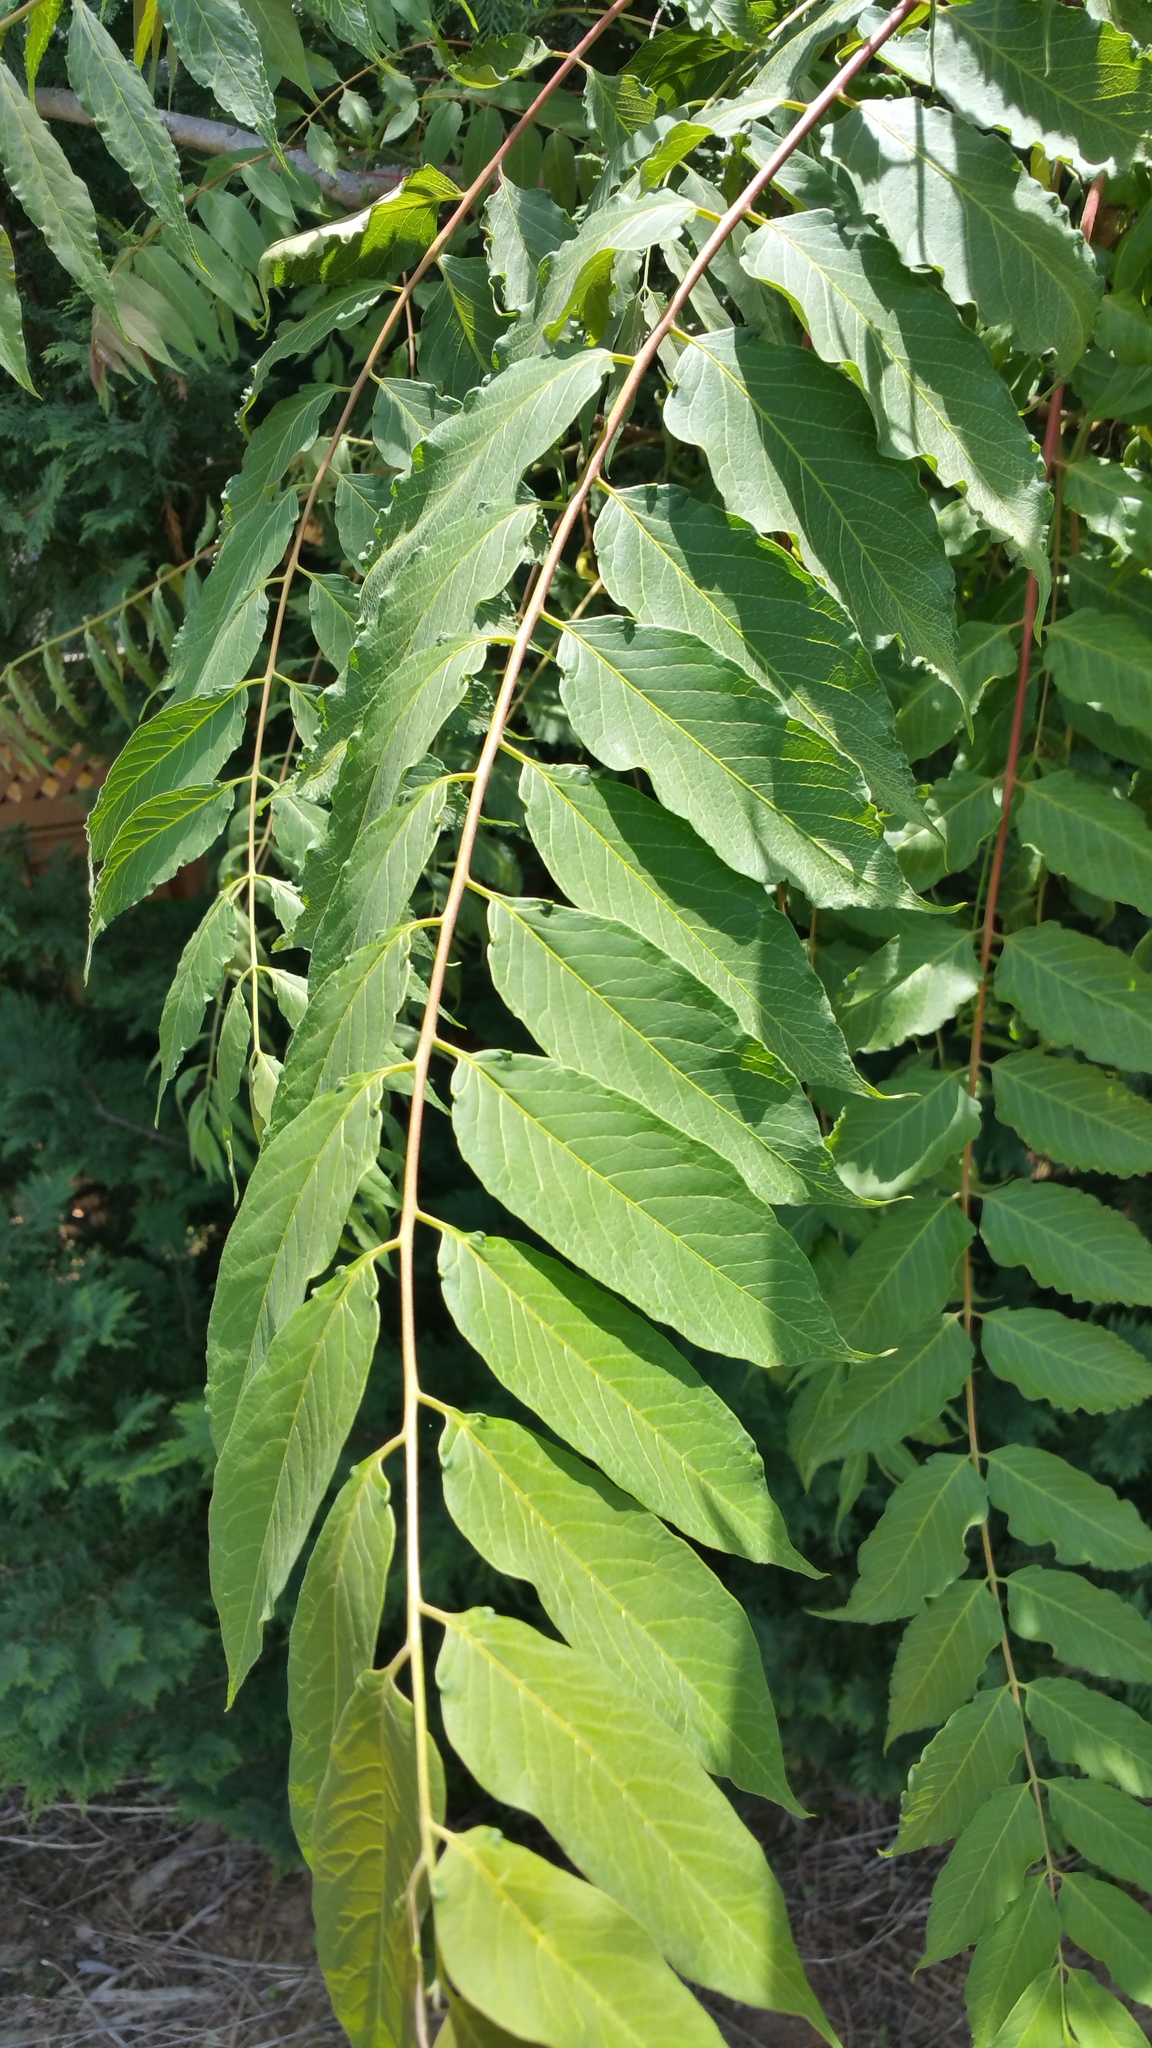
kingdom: Plantae
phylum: Tracheophyta
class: Magnoliopsida
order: Sapindales
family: Simaroubaceae
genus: Ailanthus
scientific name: Ailanthus altissima
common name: Tree-of-heaven
